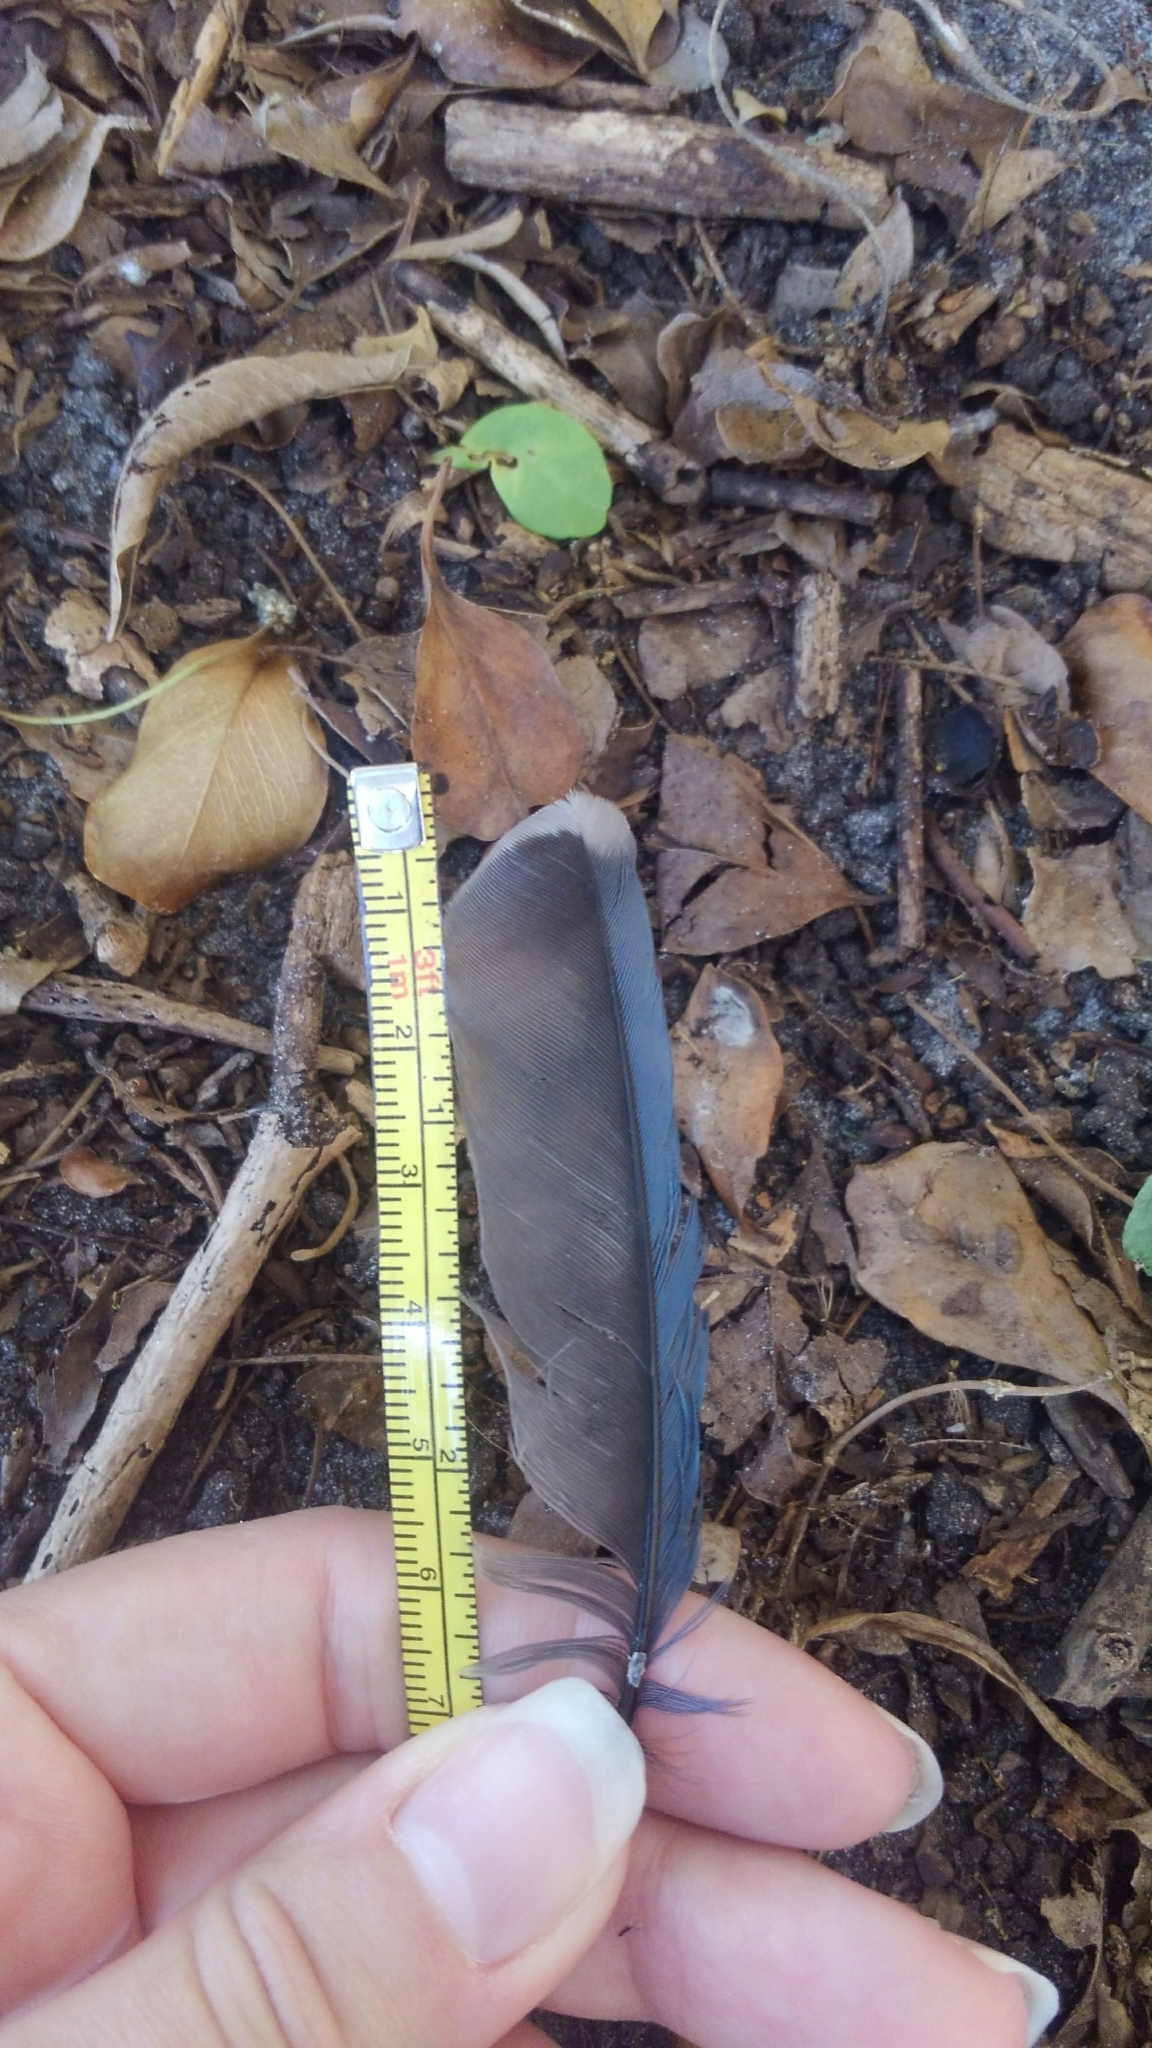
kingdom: Animalia
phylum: Chordata
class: Aves
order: Passeriformes
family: Corvidae
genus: Cyanocitta
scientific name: Cyanocitta cristata
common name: Blue jay
